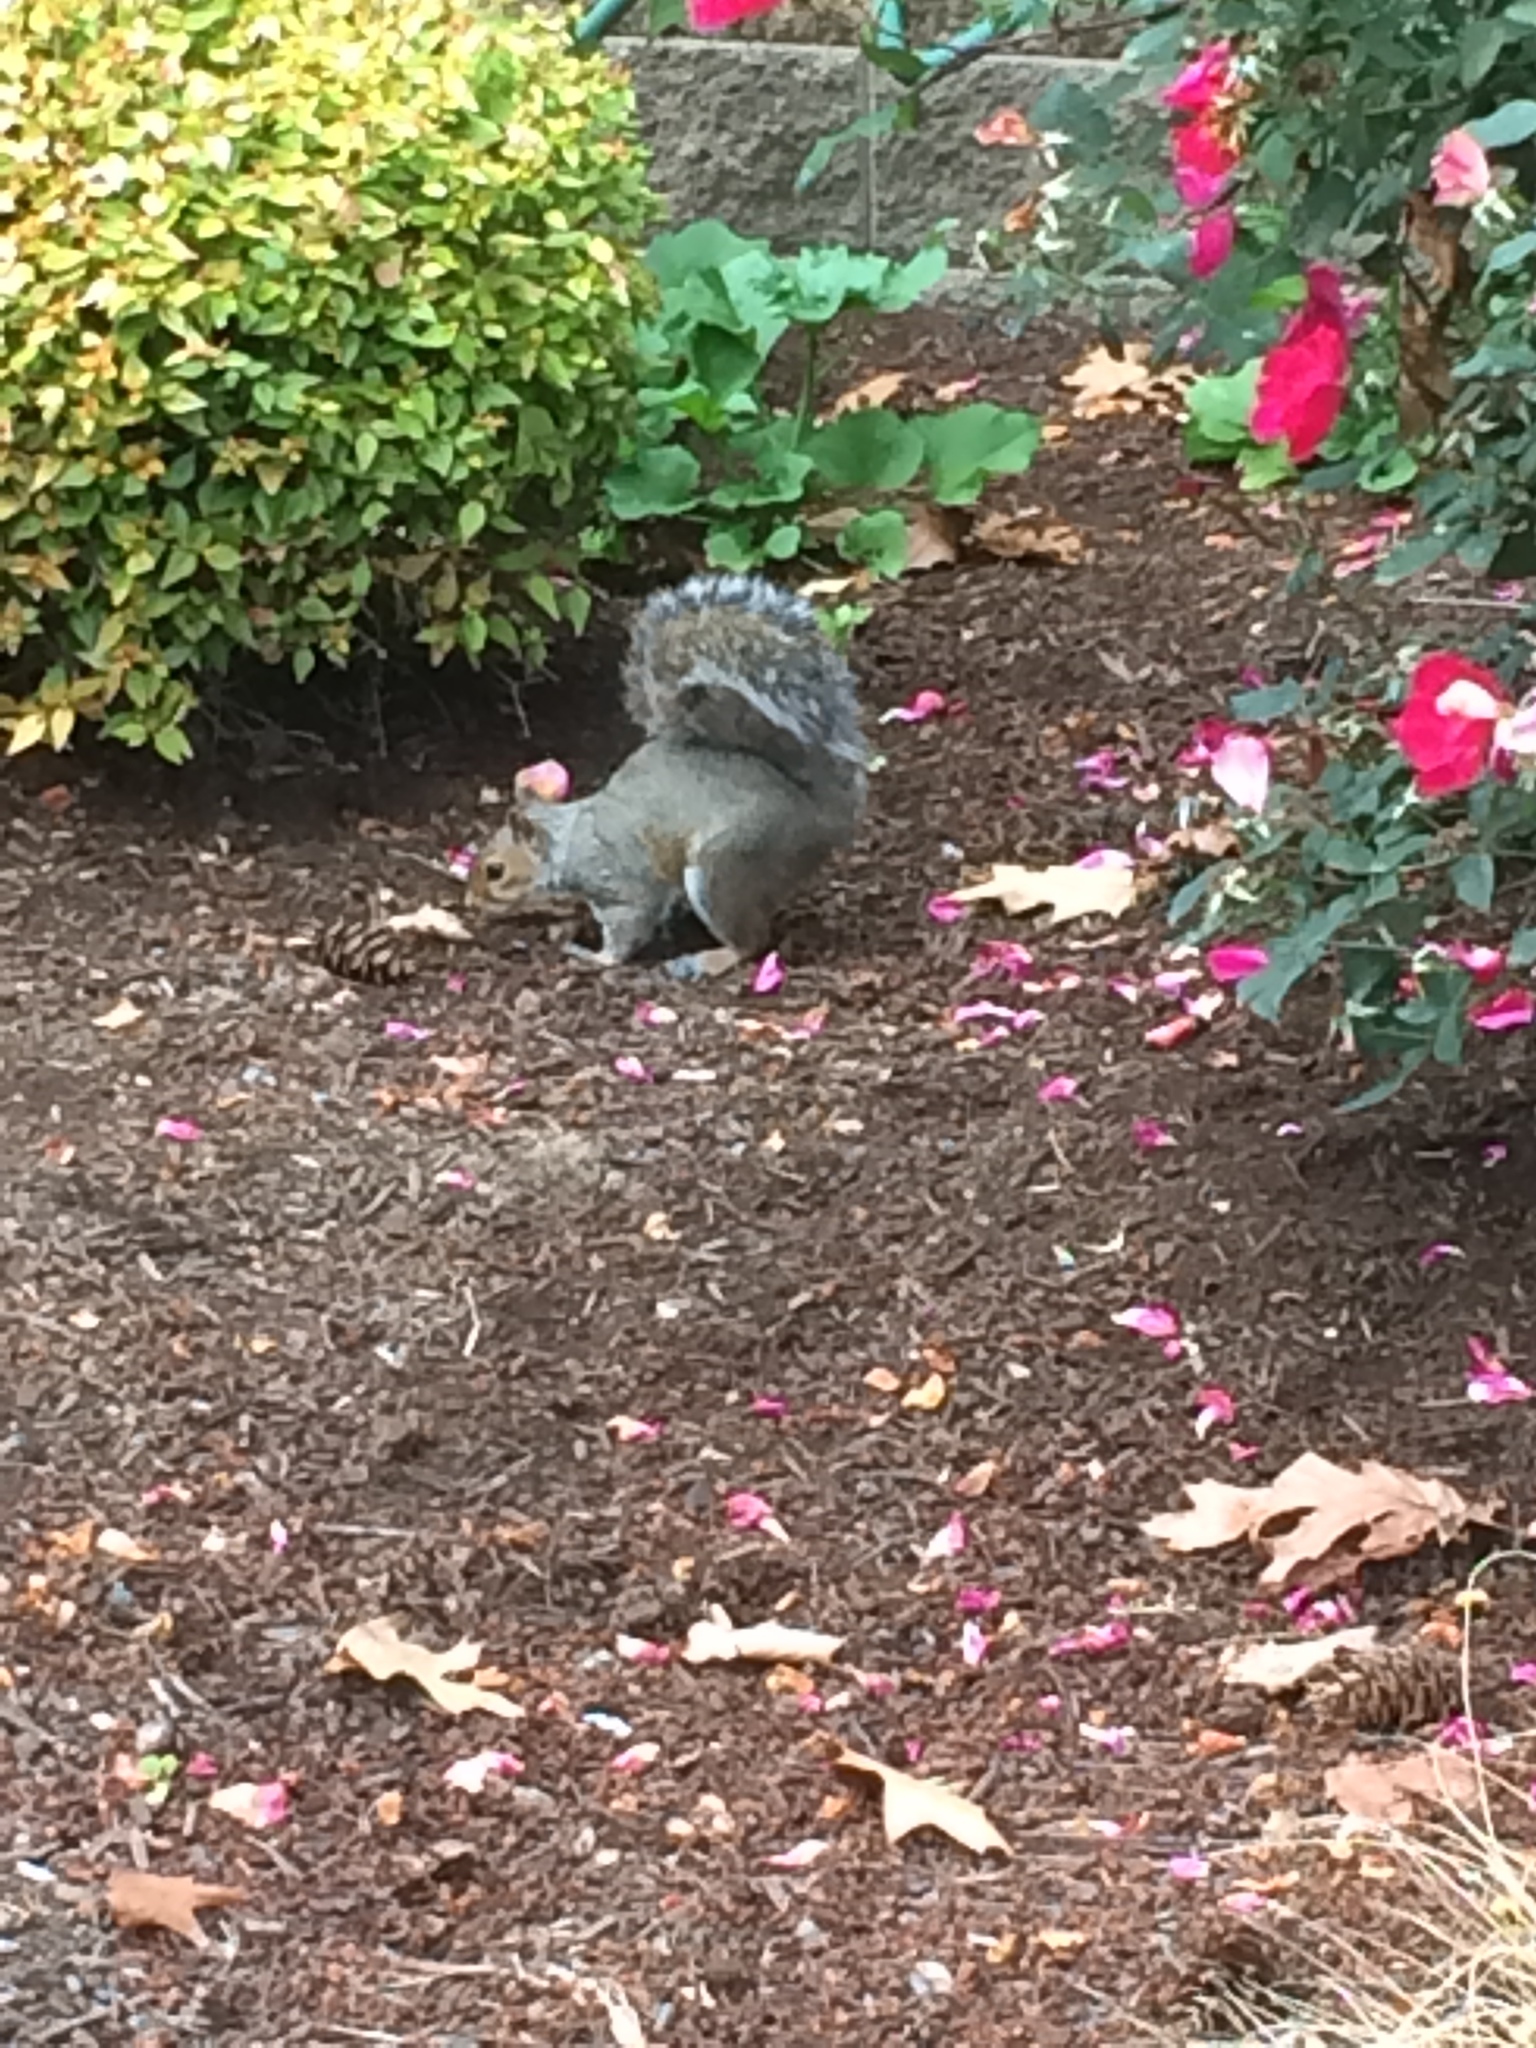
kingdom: Animalia
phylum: Chordata
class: Mammalia
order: Rodentia
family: Sciuridae
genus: Sciurus
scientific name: Sciurus carolinensis
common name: Eastern gray squirrel
